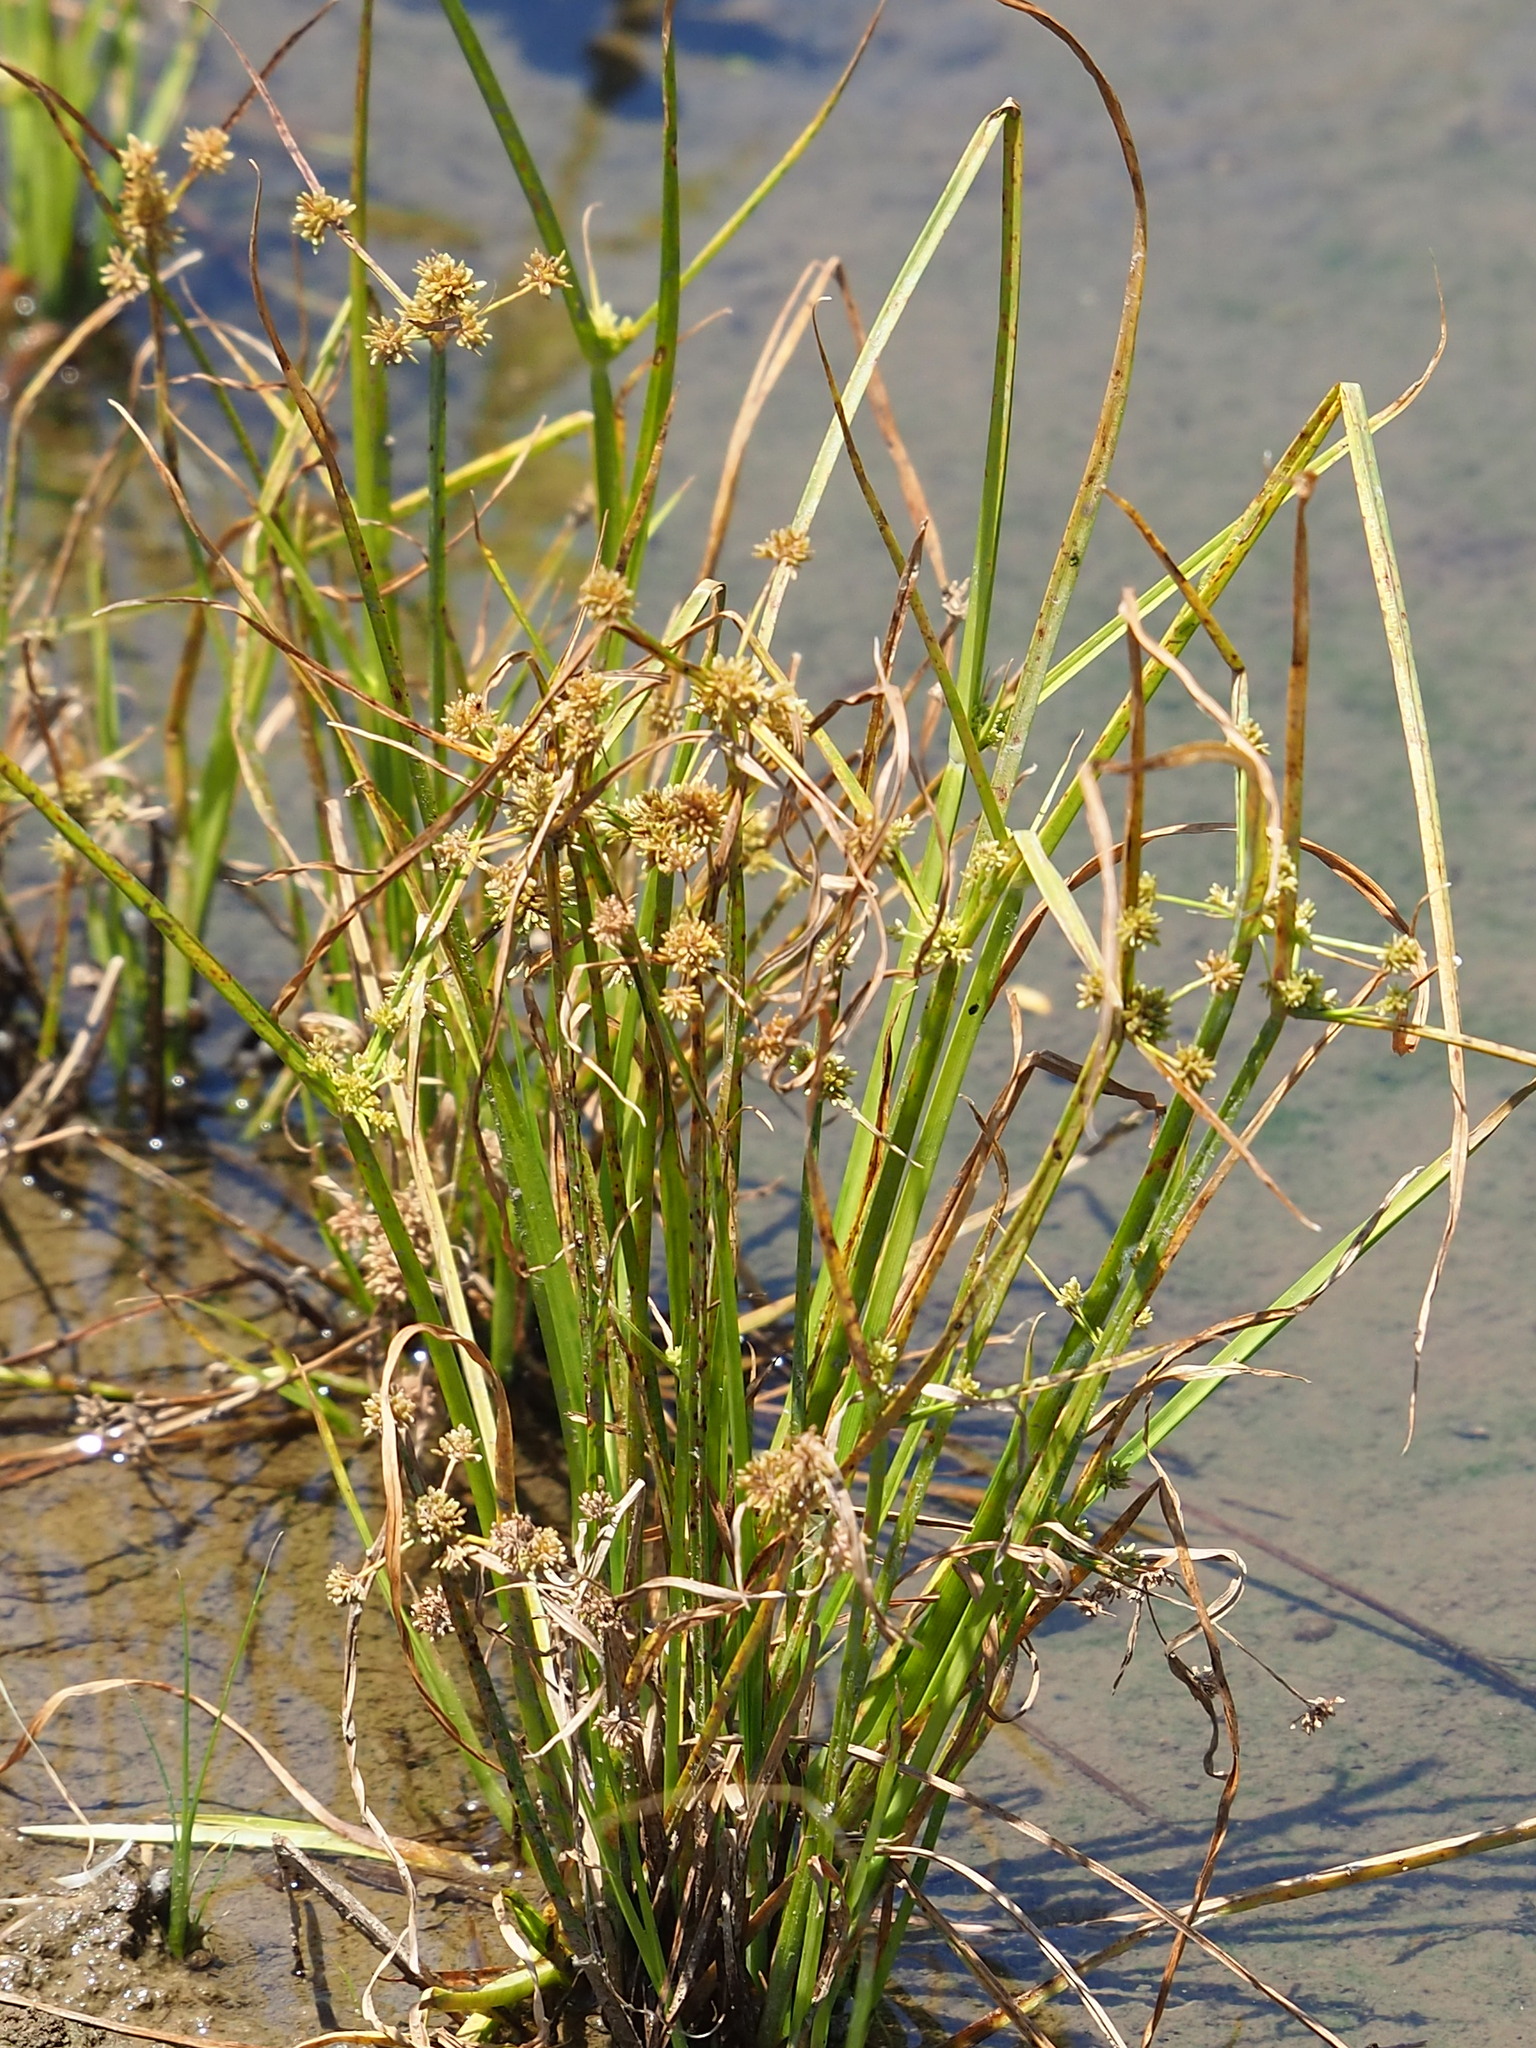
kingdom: Plantae
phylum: Tracheophyta
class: Liliopsida
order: Poales
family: Cyperaceae
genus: Cyperus
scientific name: Cyperus difformis
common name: Variable flatsedge
